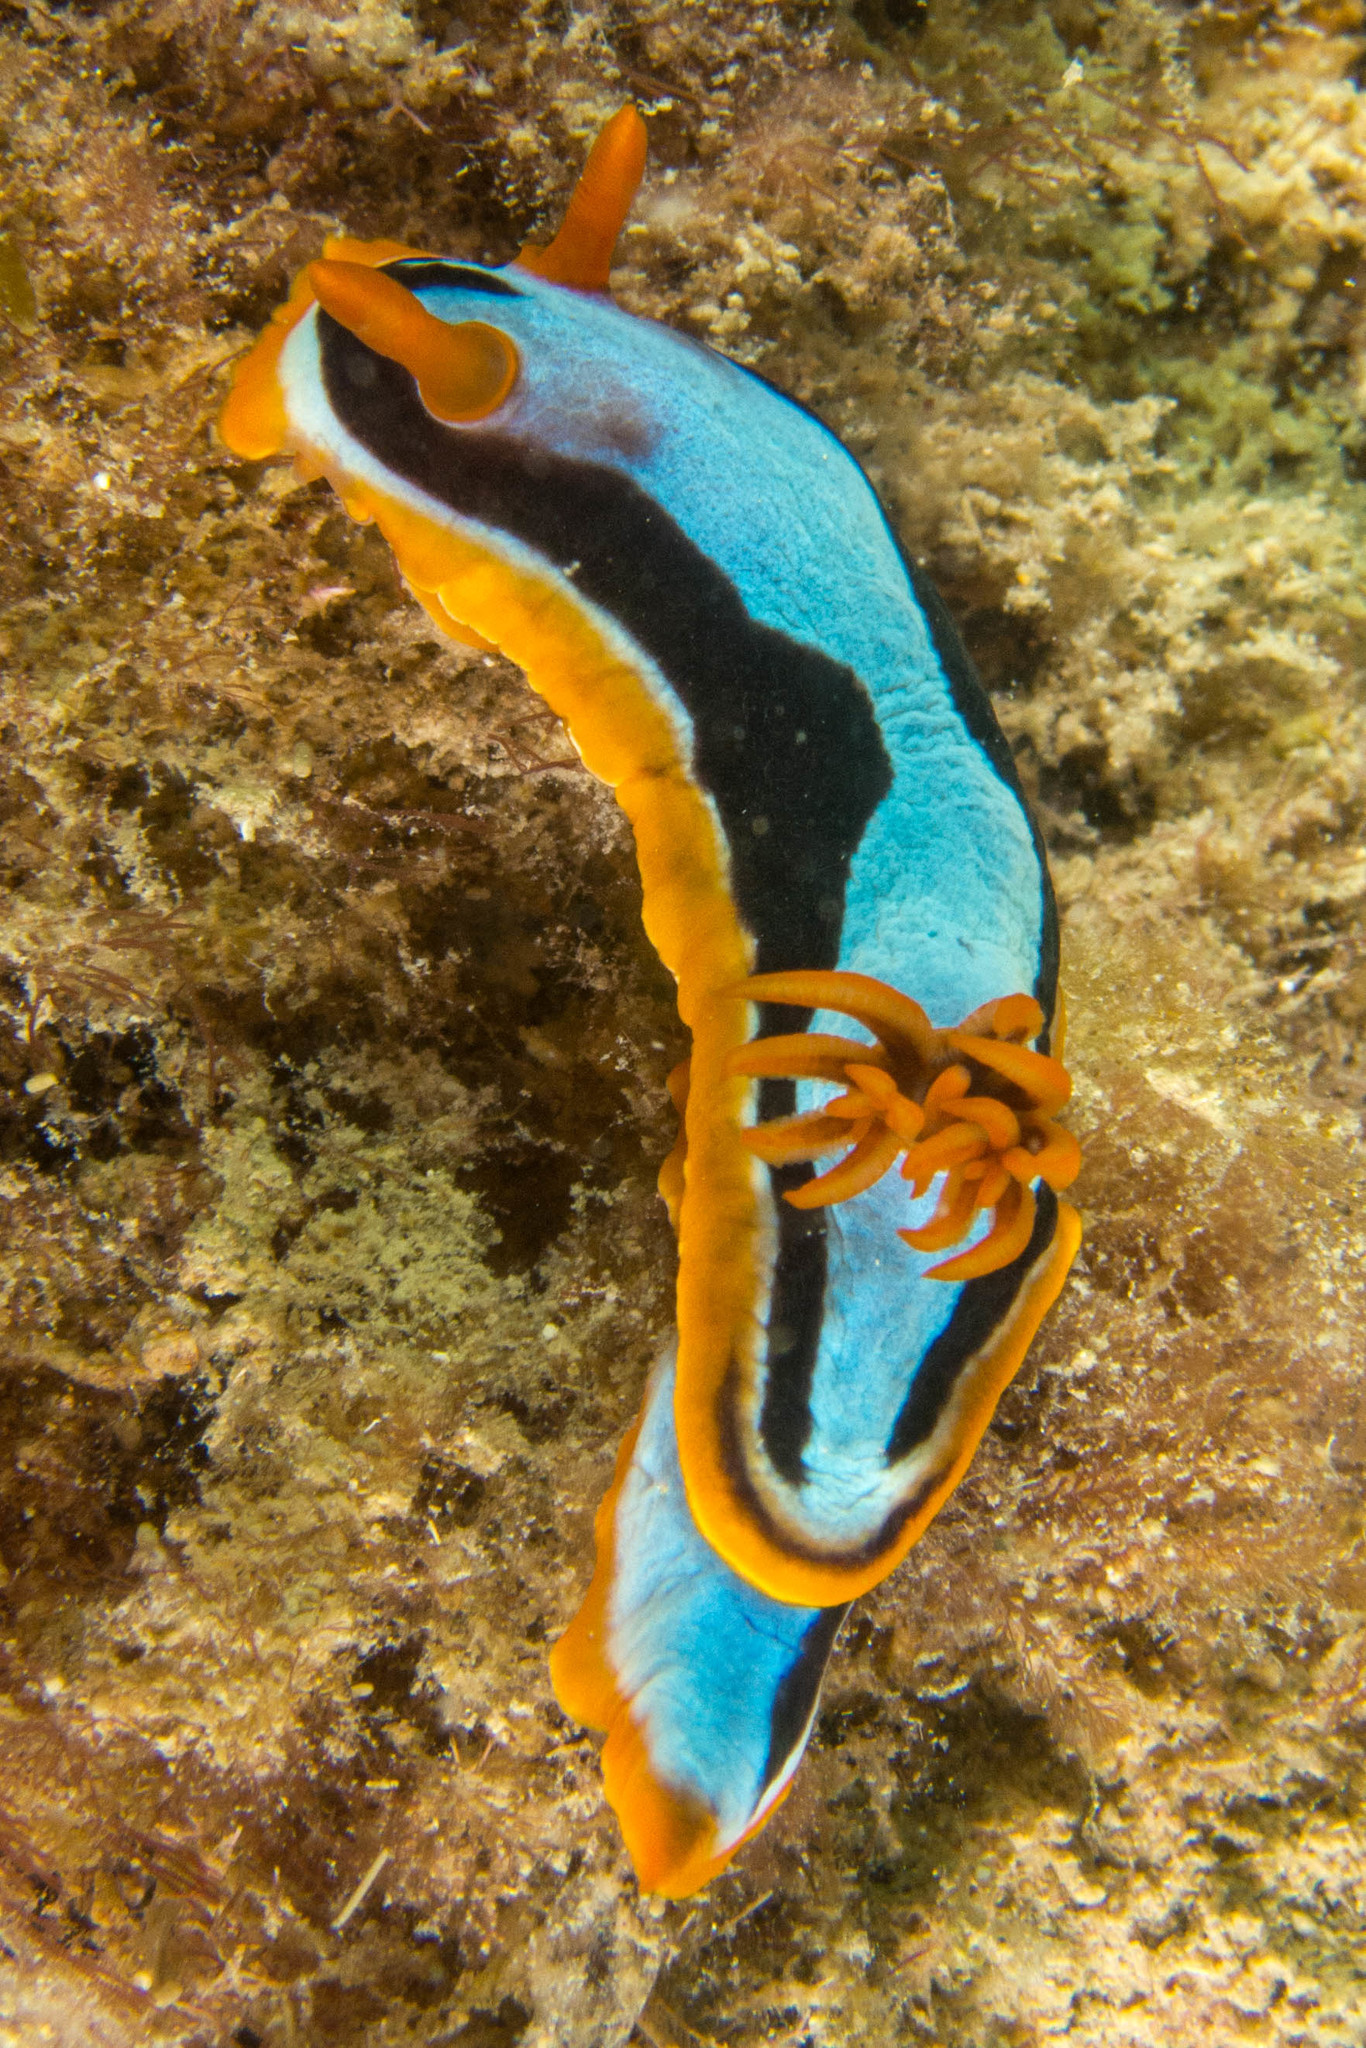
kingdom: Animalia
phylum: Mollusca
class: Gastropoda
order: Nudibranchia
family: Chromodorididae
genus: Chromodoris
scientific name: Chromodoris colemani
